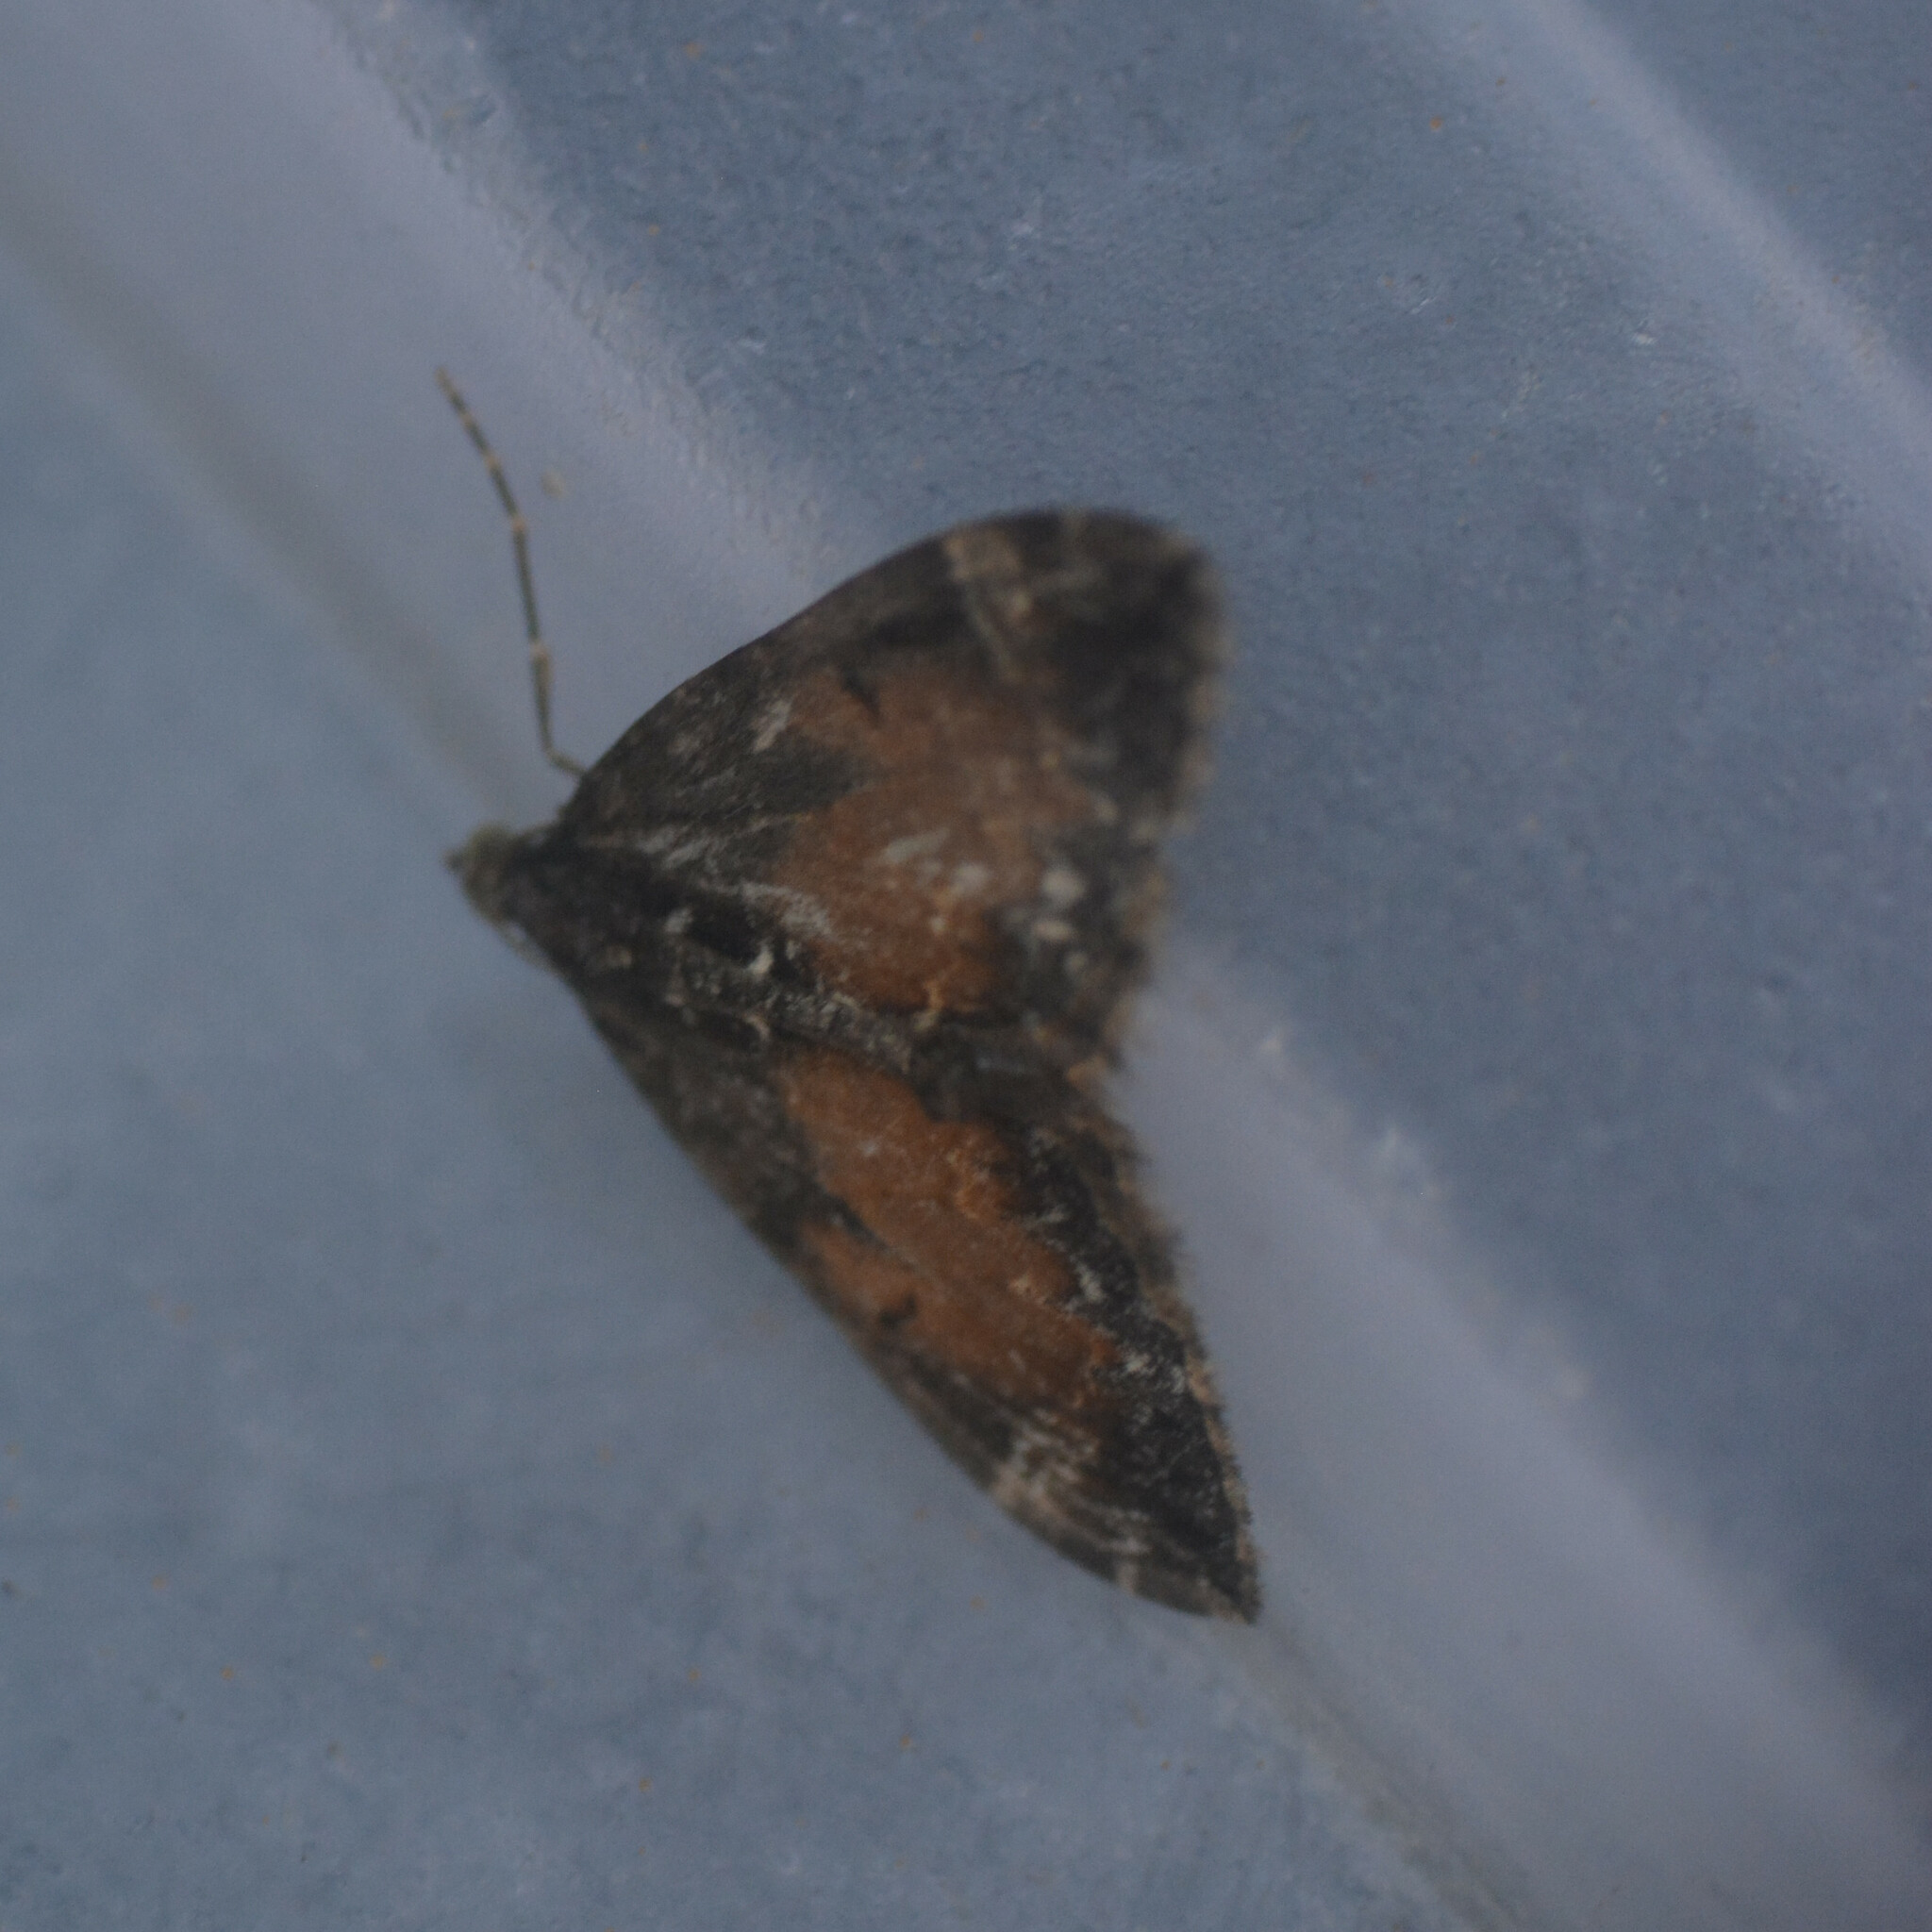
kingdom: Animalia
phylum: Arthropoda
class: Insecta
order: Lepidoptera
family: Geometridae
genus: Dysstroma
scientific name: Dysstroma truncata
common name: Common marbled carpet
